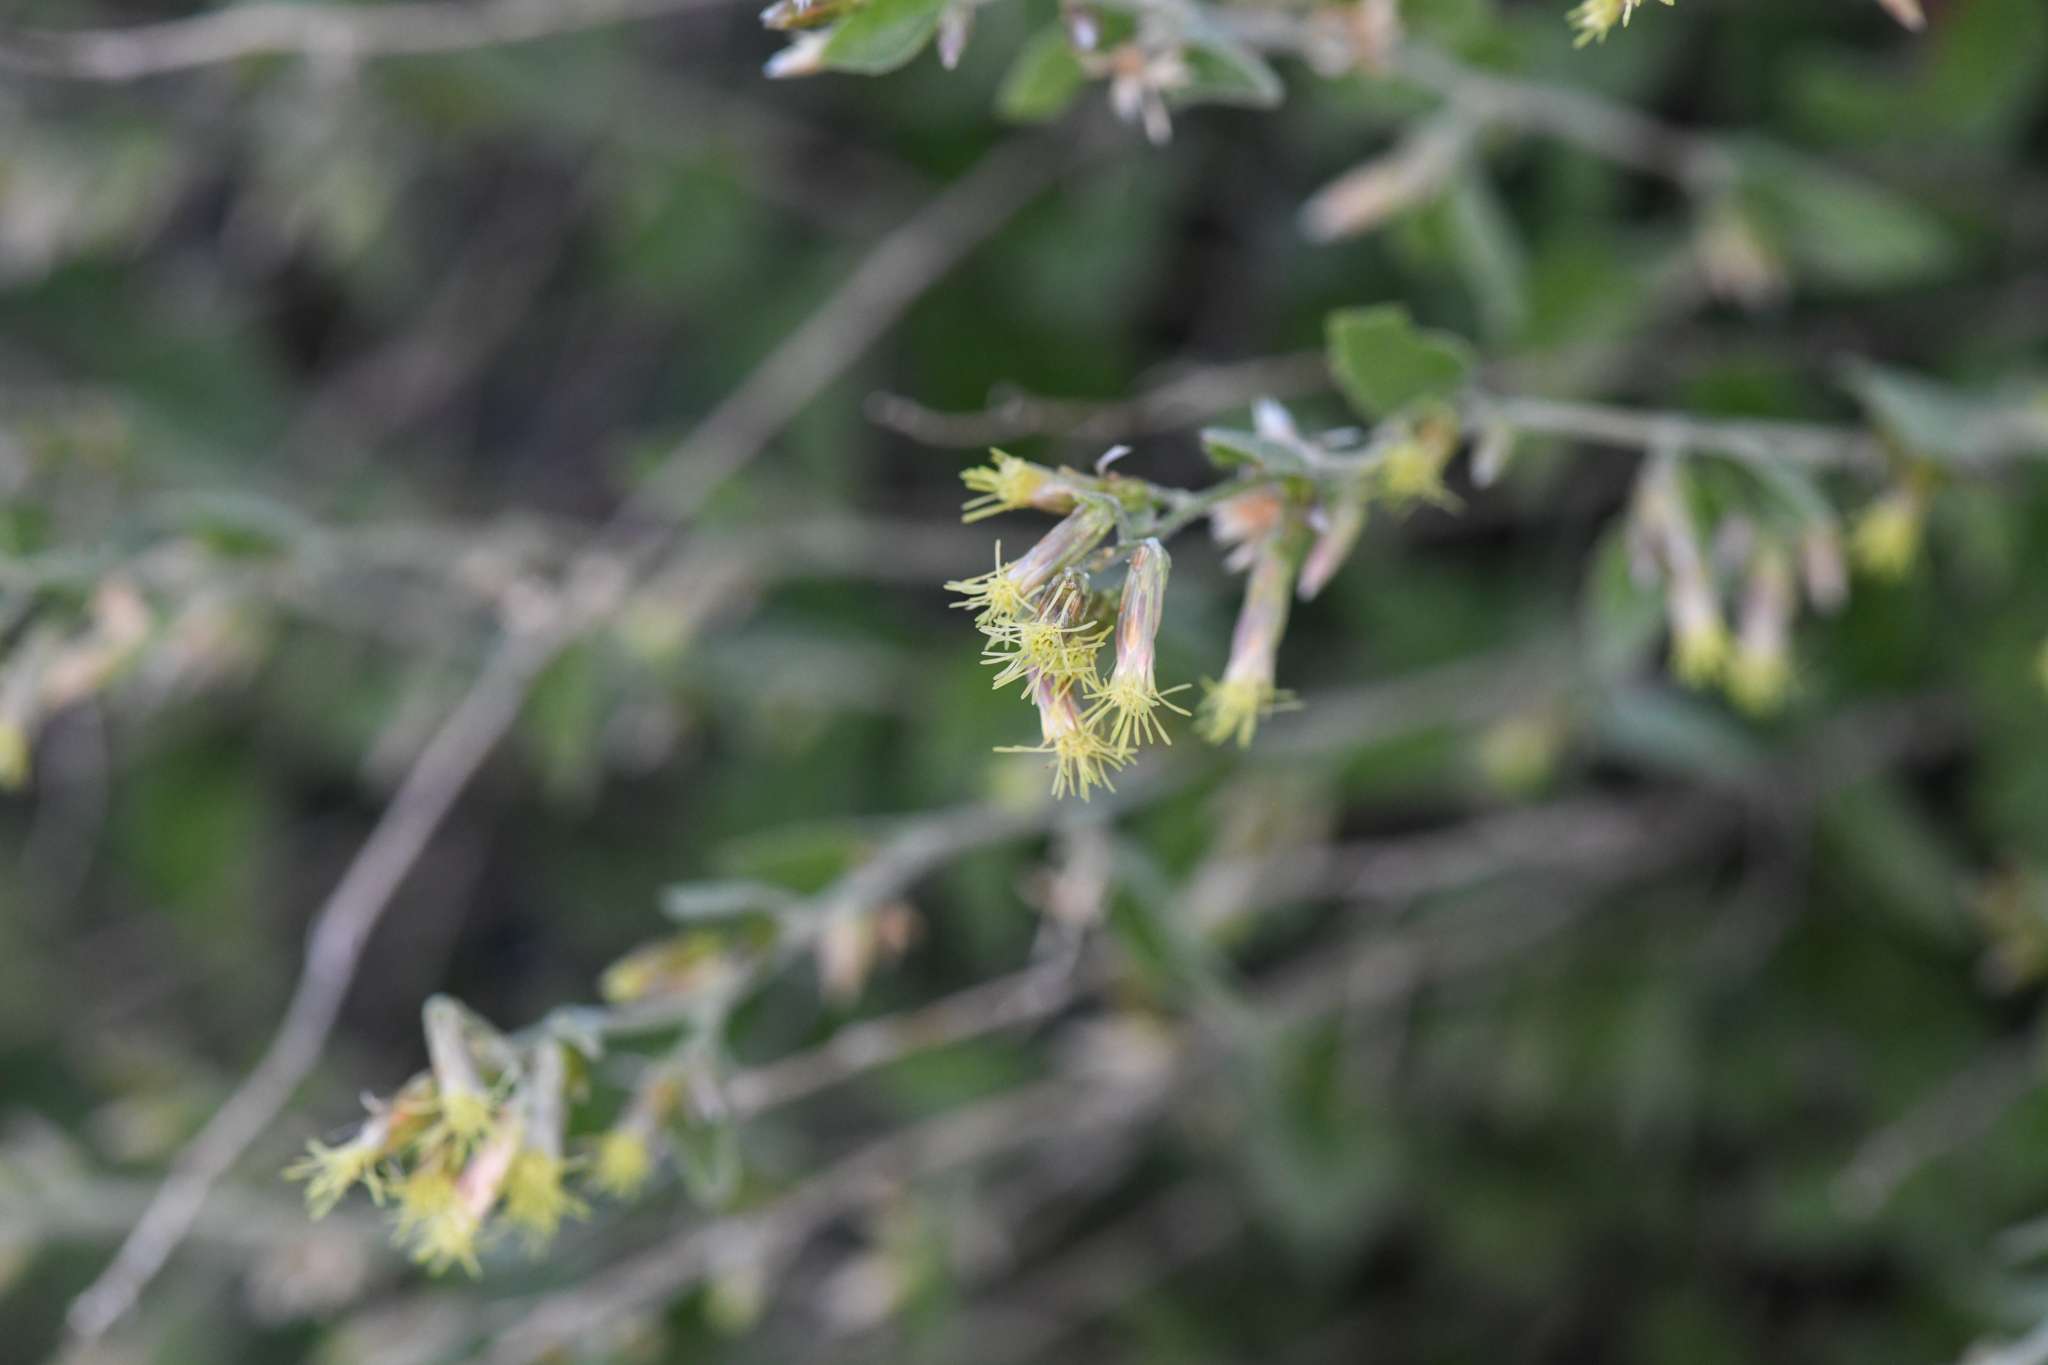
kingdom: Plantae
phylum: Tracheophyta
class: Magnoliopsida
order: Asterales
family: Asteraceae
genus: Brickellia
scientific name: Brickellia californica
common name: California brickellbush
